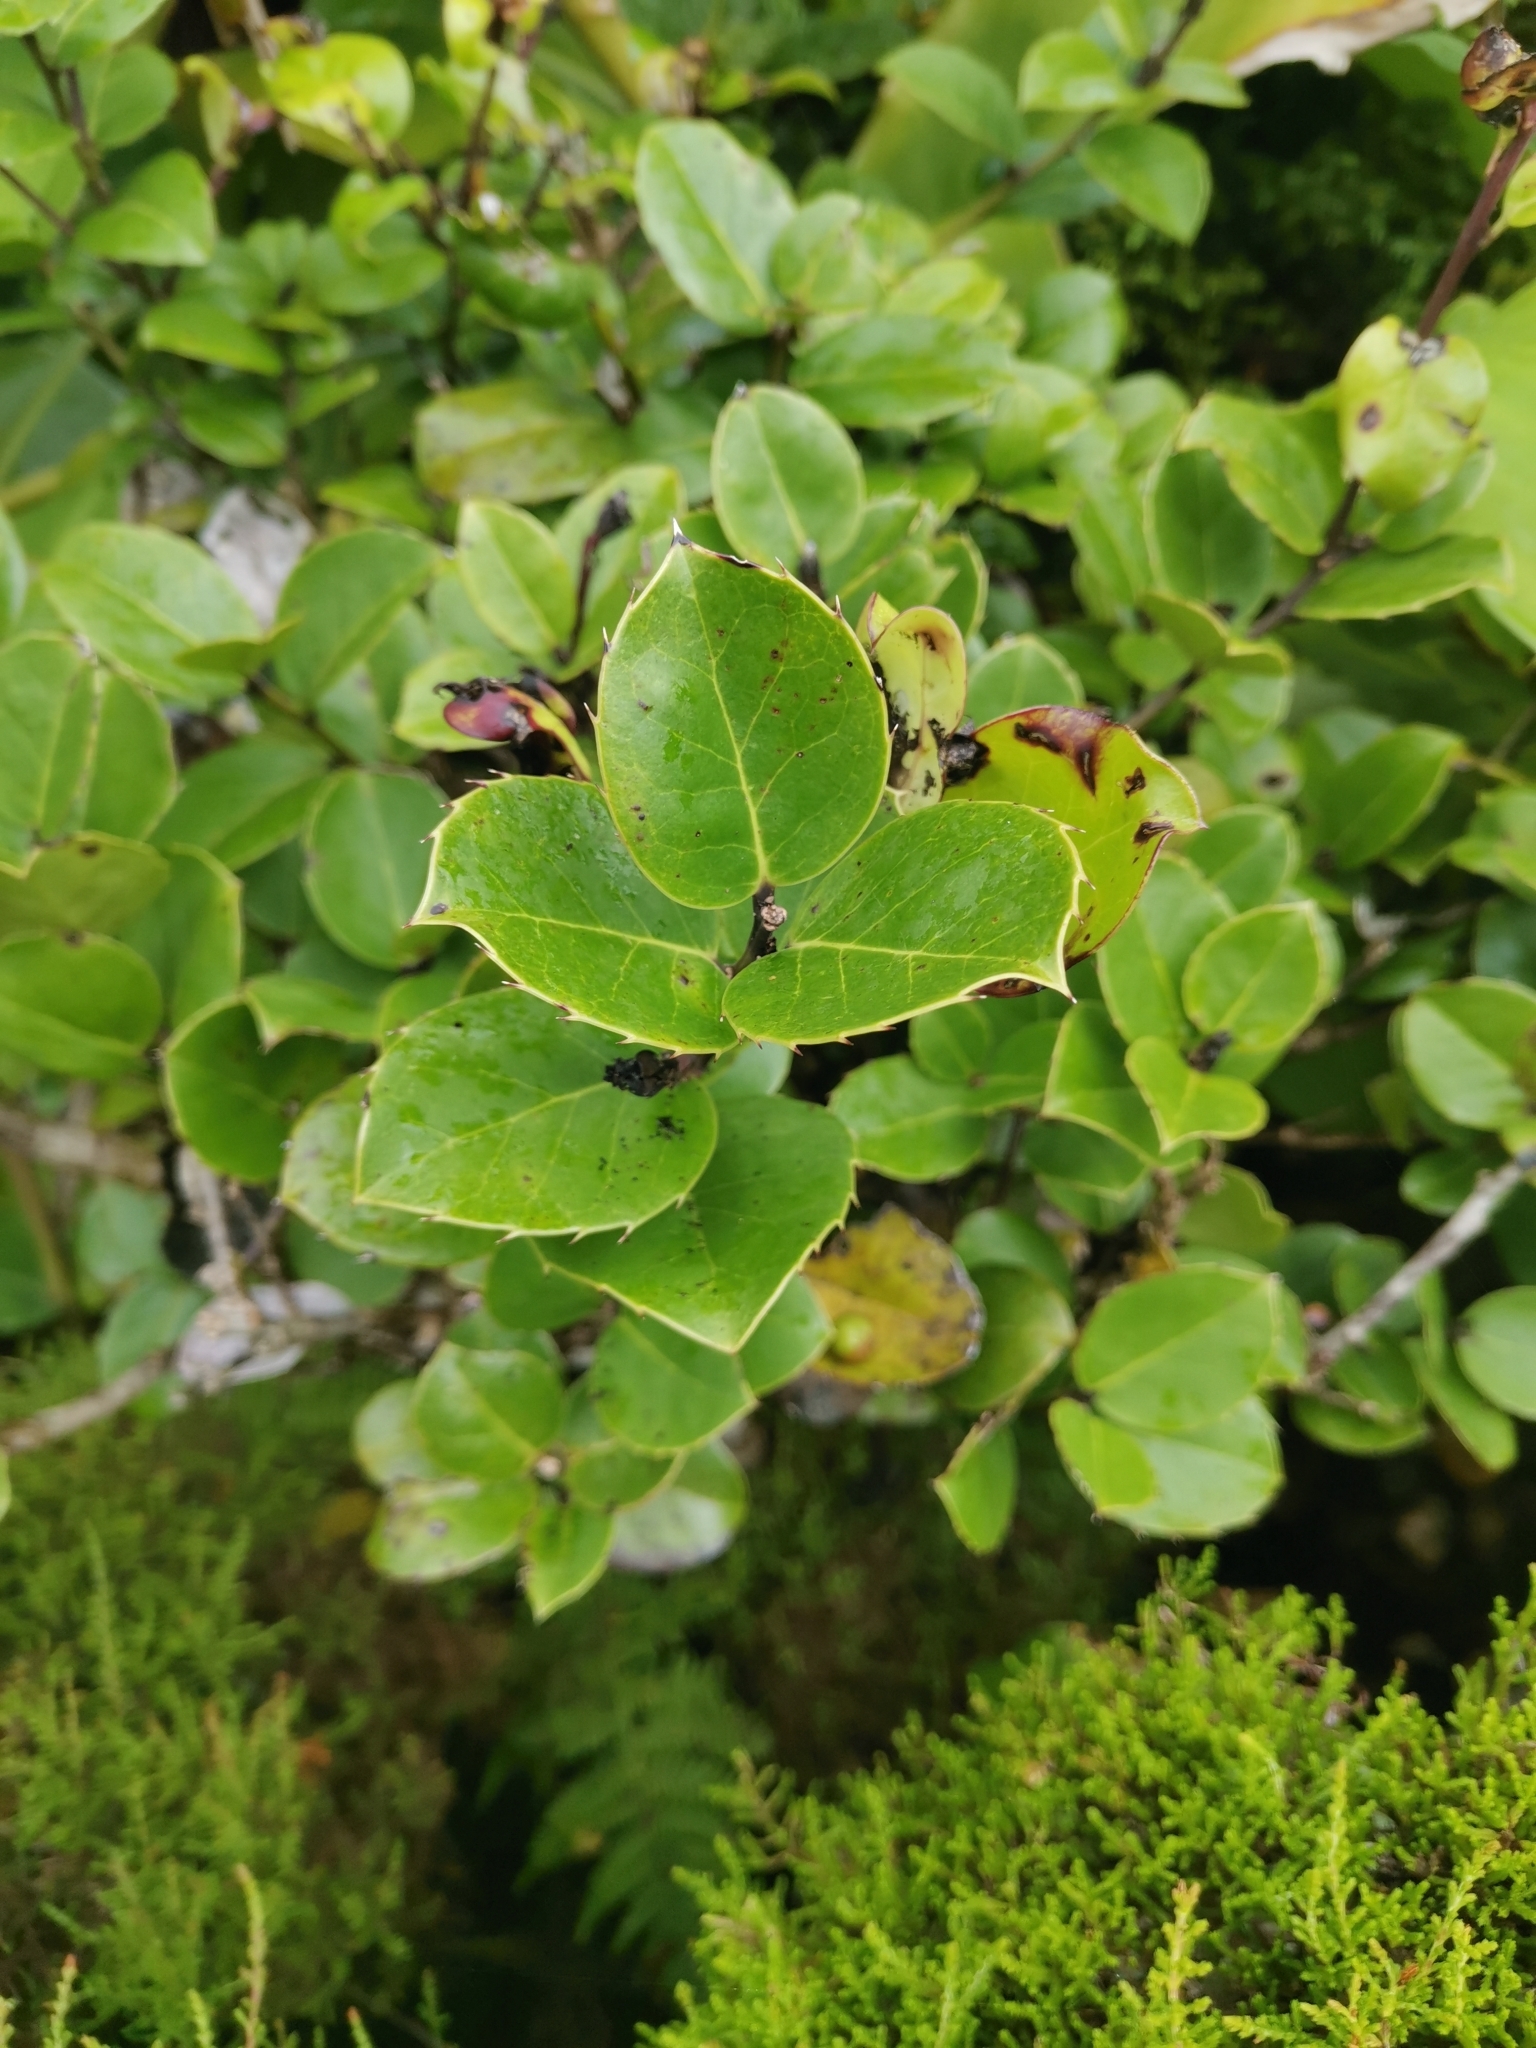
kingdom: Plantae
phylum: Tracheophyta
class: Magnoliopsida
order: Aquifoliales
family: Aquifoliaceae
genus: Ilex
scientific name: Ilex perado
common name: Madeira holly
